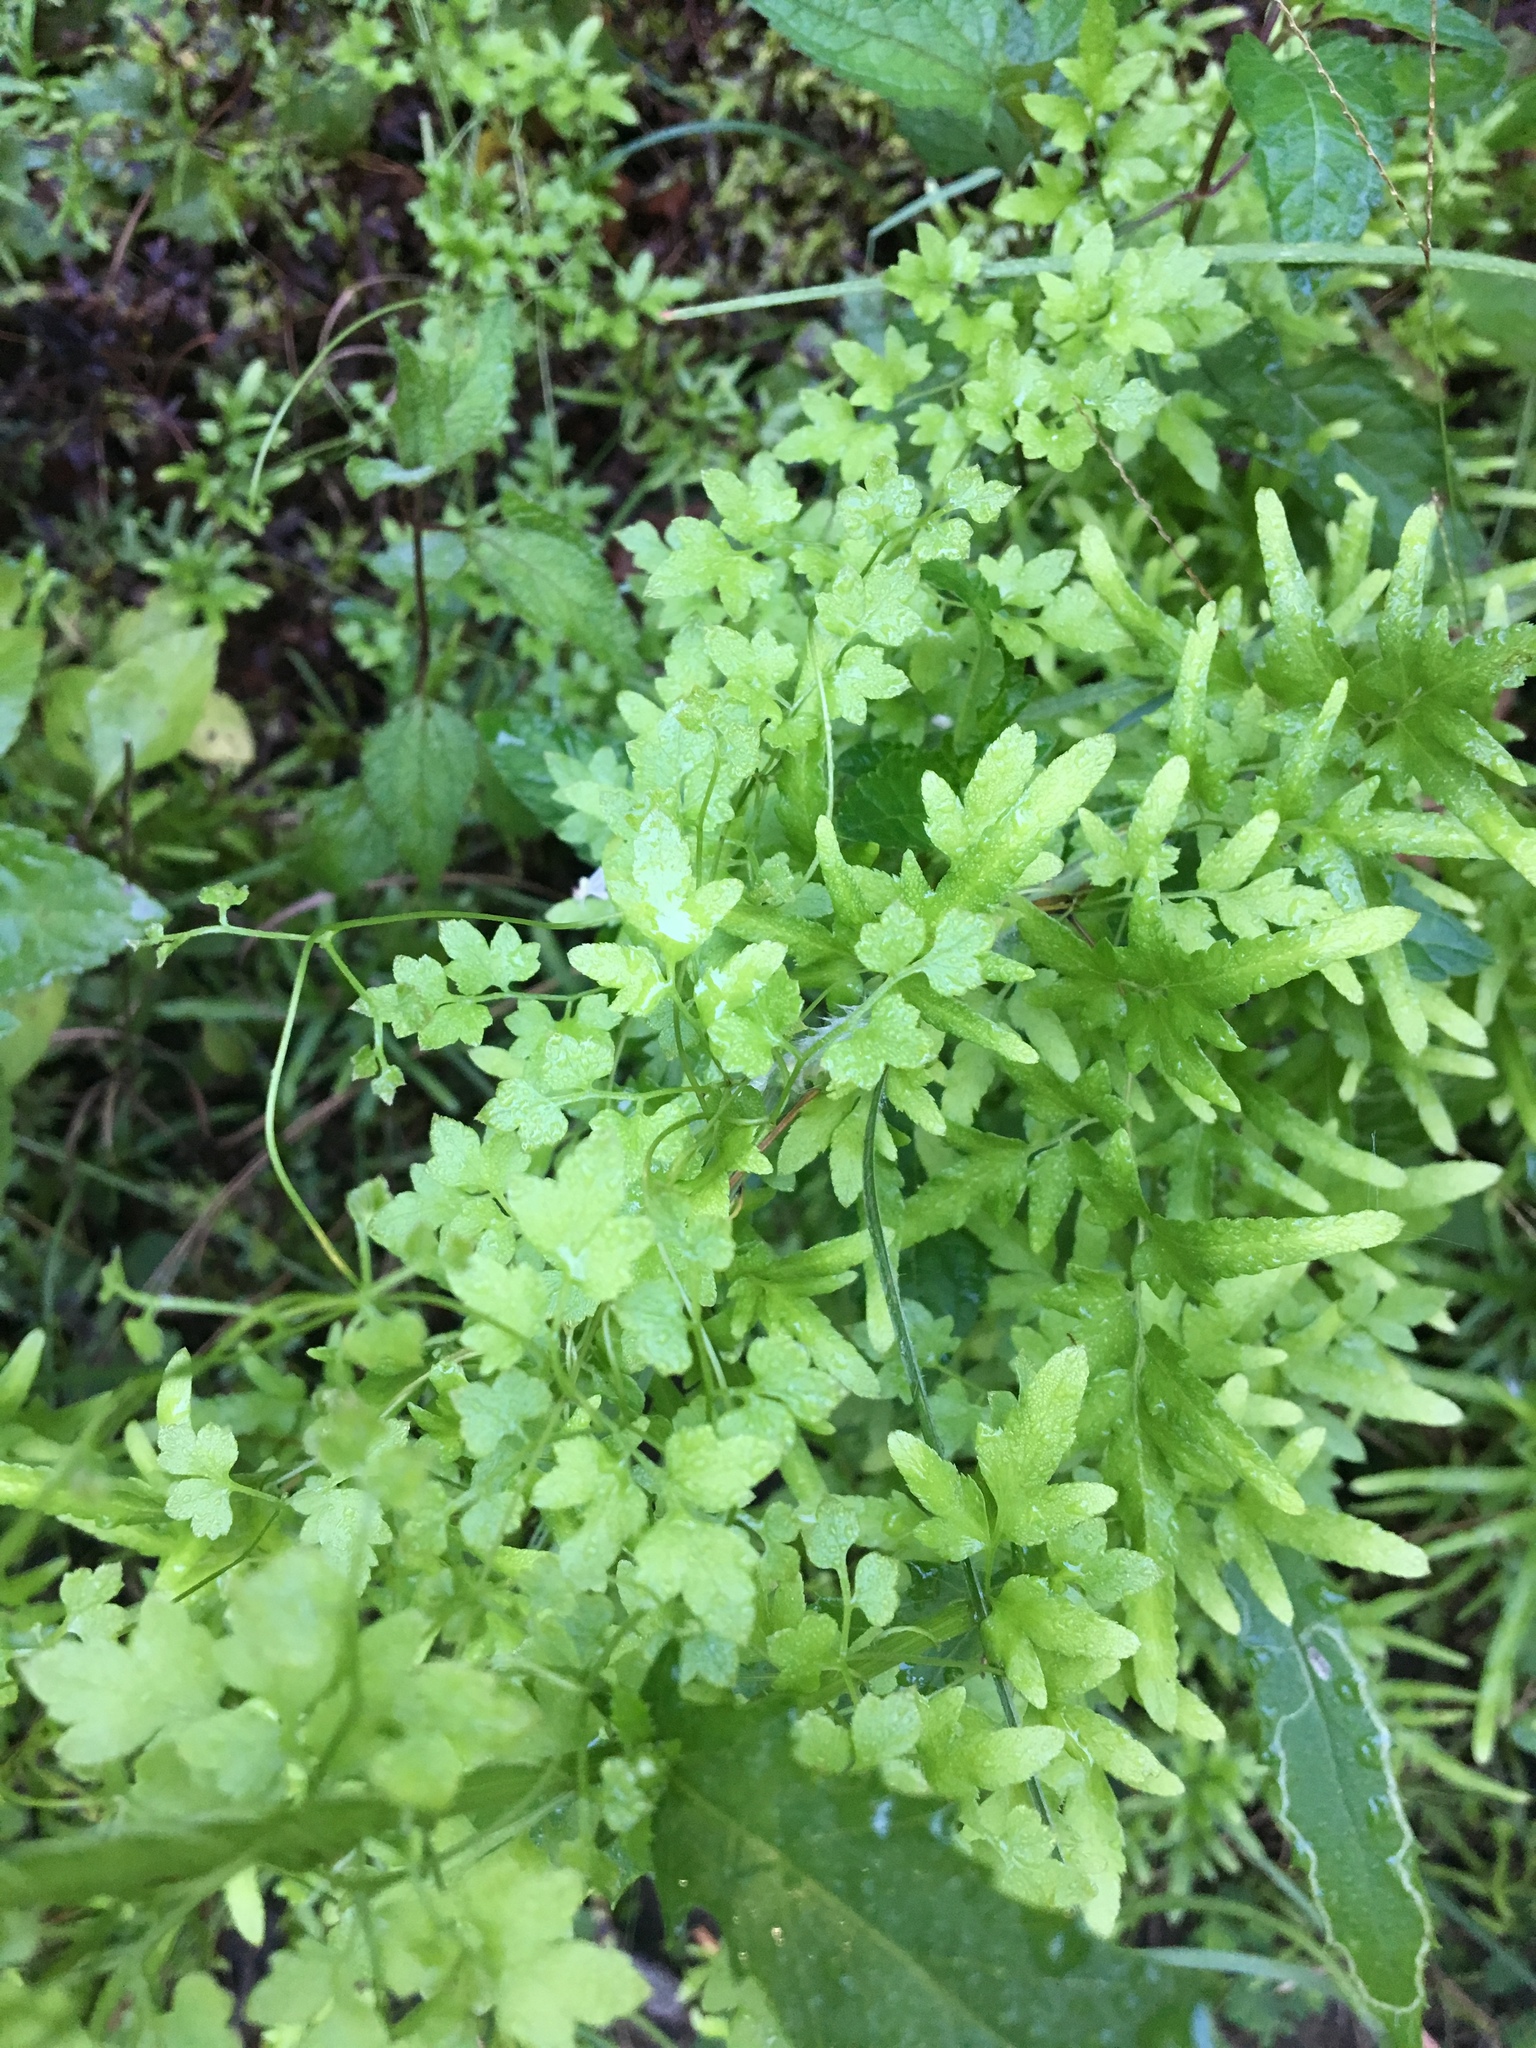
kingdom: Plantae
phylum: Tracheophyta
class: Polypodiopsida
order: Schizaeales
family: Lygodiaceae
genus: Lygodium
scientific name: Lygodium japonicum
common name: Japanese climbing fern
